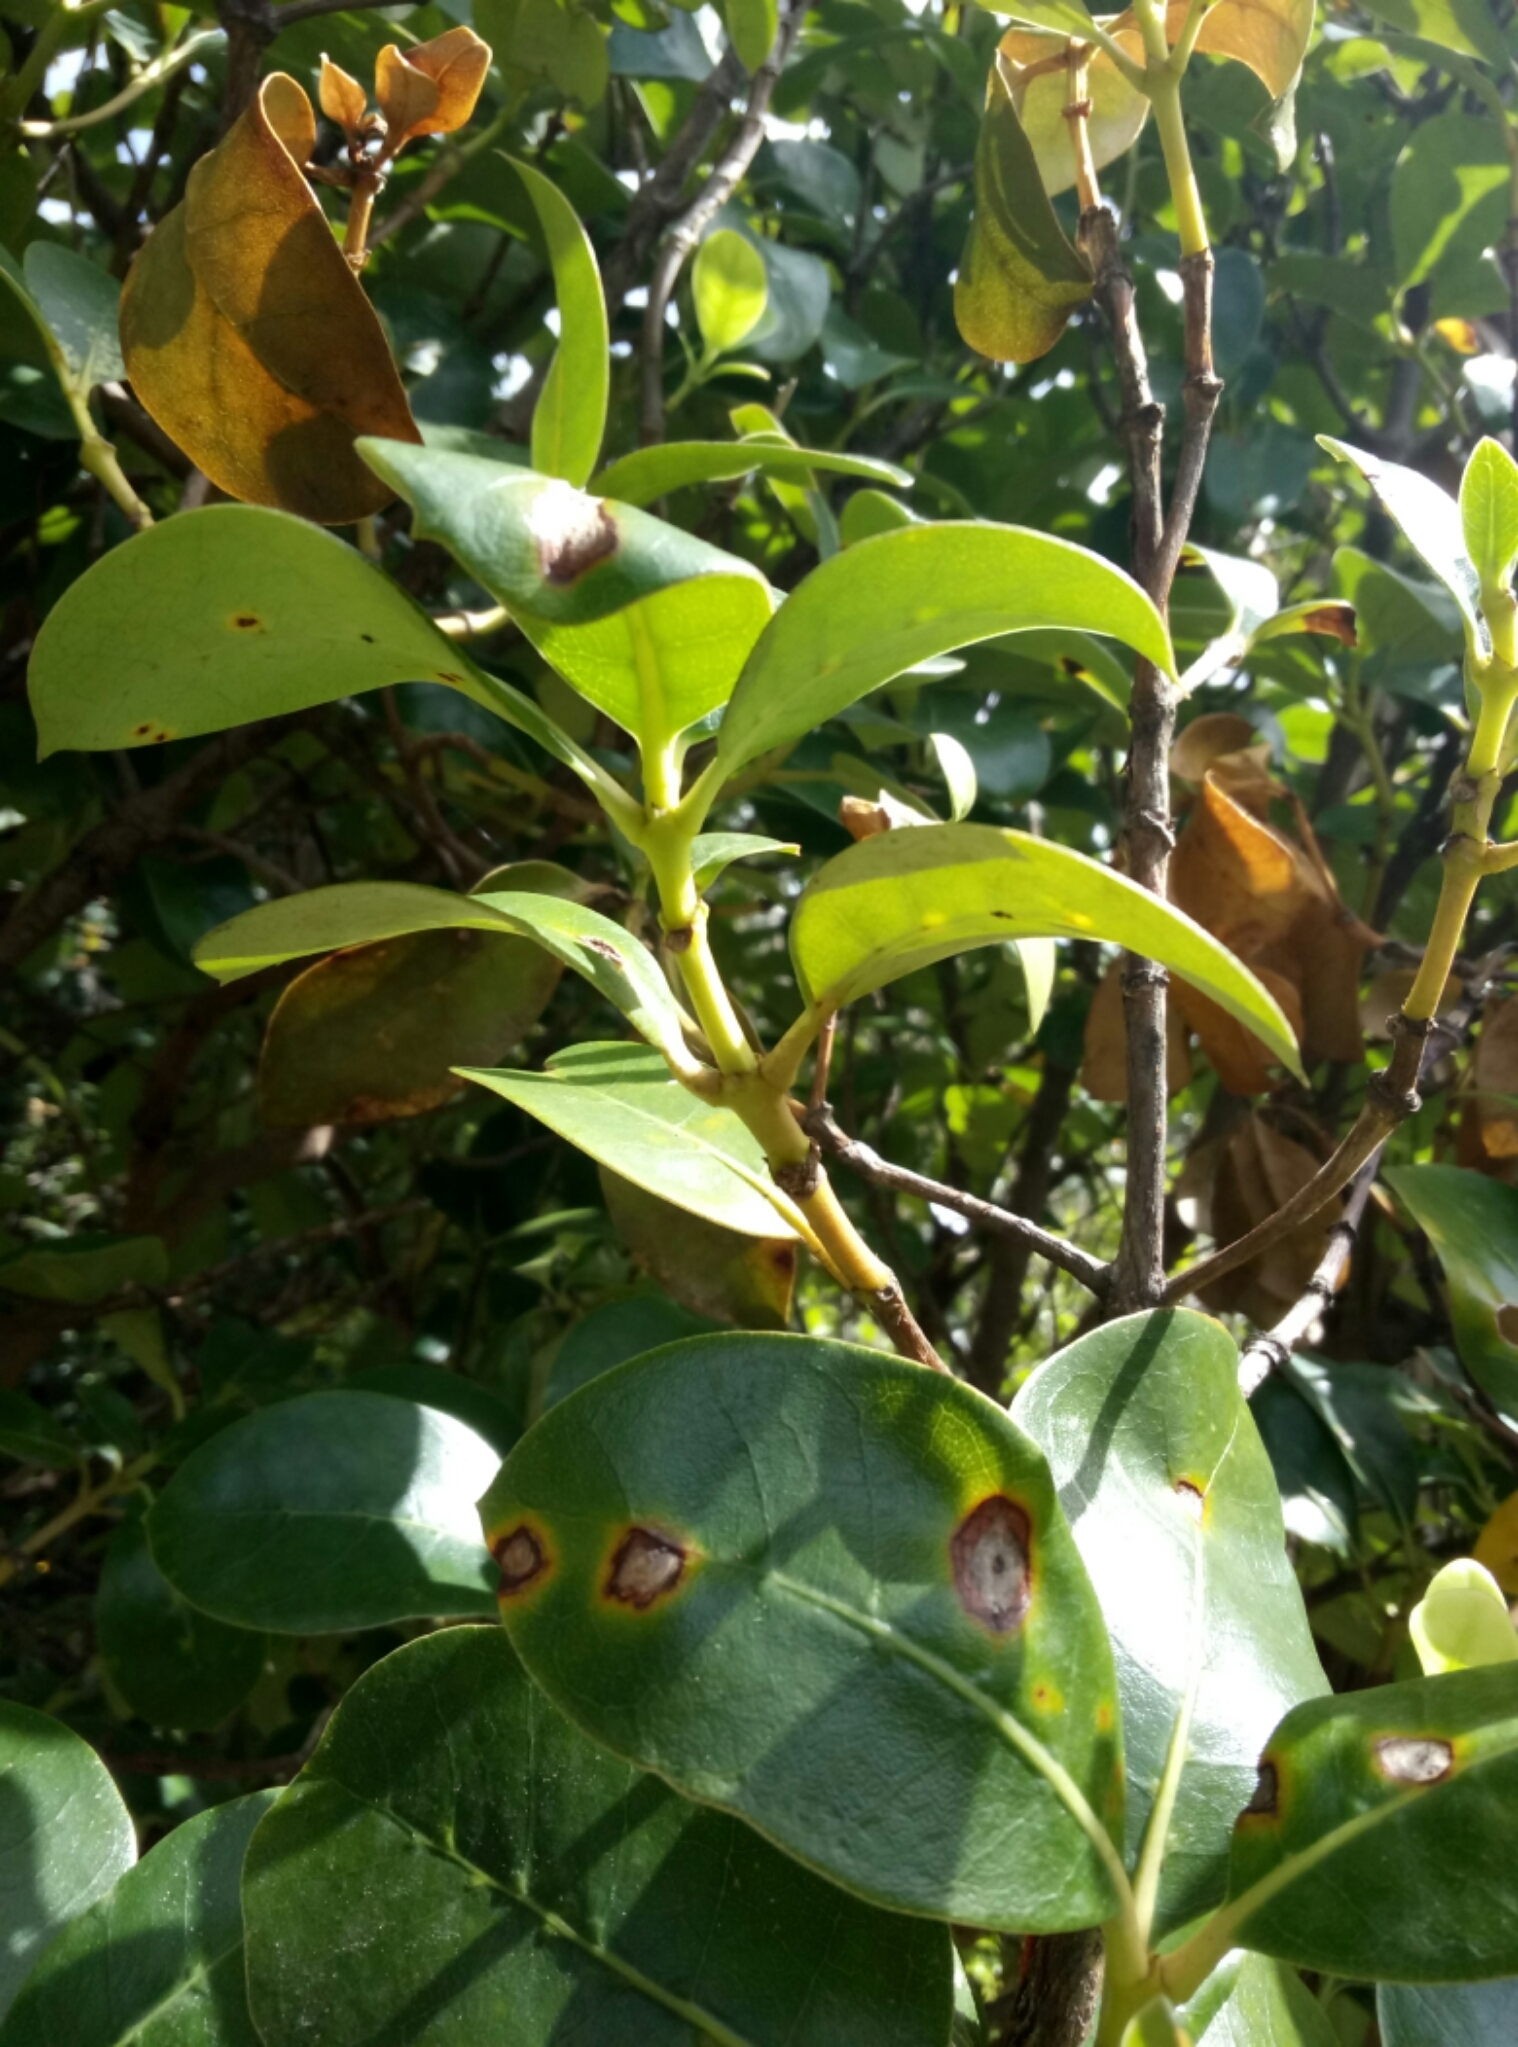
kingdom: Plantae
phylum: Tracheophyta
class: Magnoliopsida
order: Gentianales
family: Rubiaceae
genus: Coprosma
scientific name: Coprosma lucida
